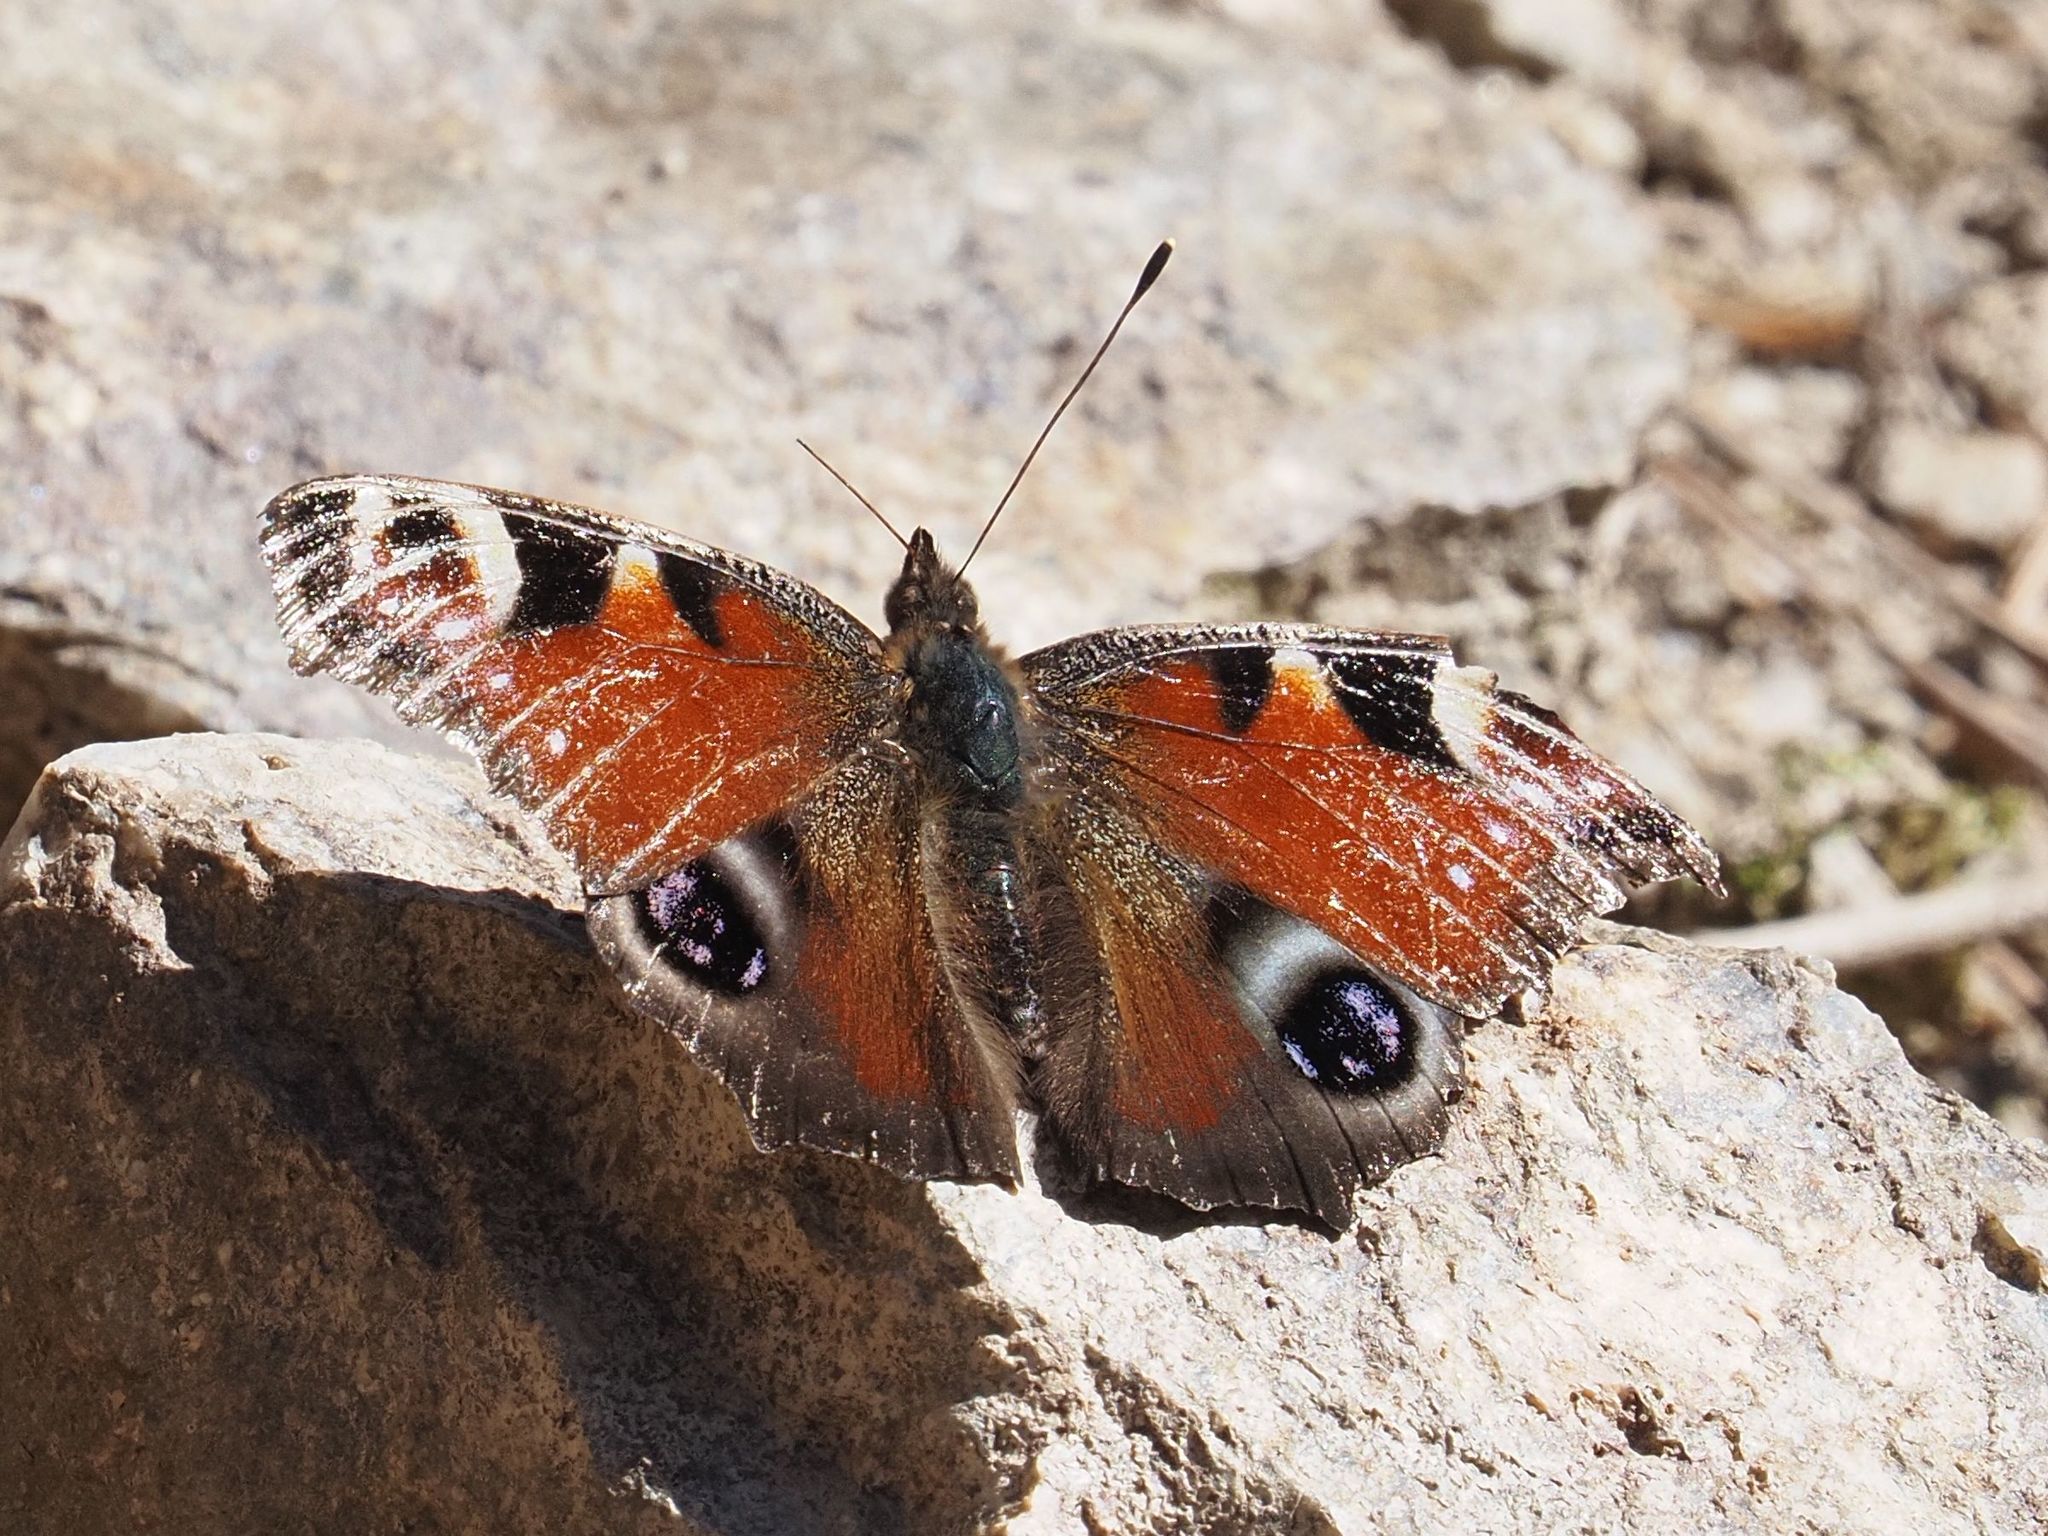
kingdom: Animalia
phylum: Arthropoda
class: Insecta
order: Lepidoptera
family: Nymphalidae
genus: Aglais
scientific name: Aglais io
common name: Peacock
